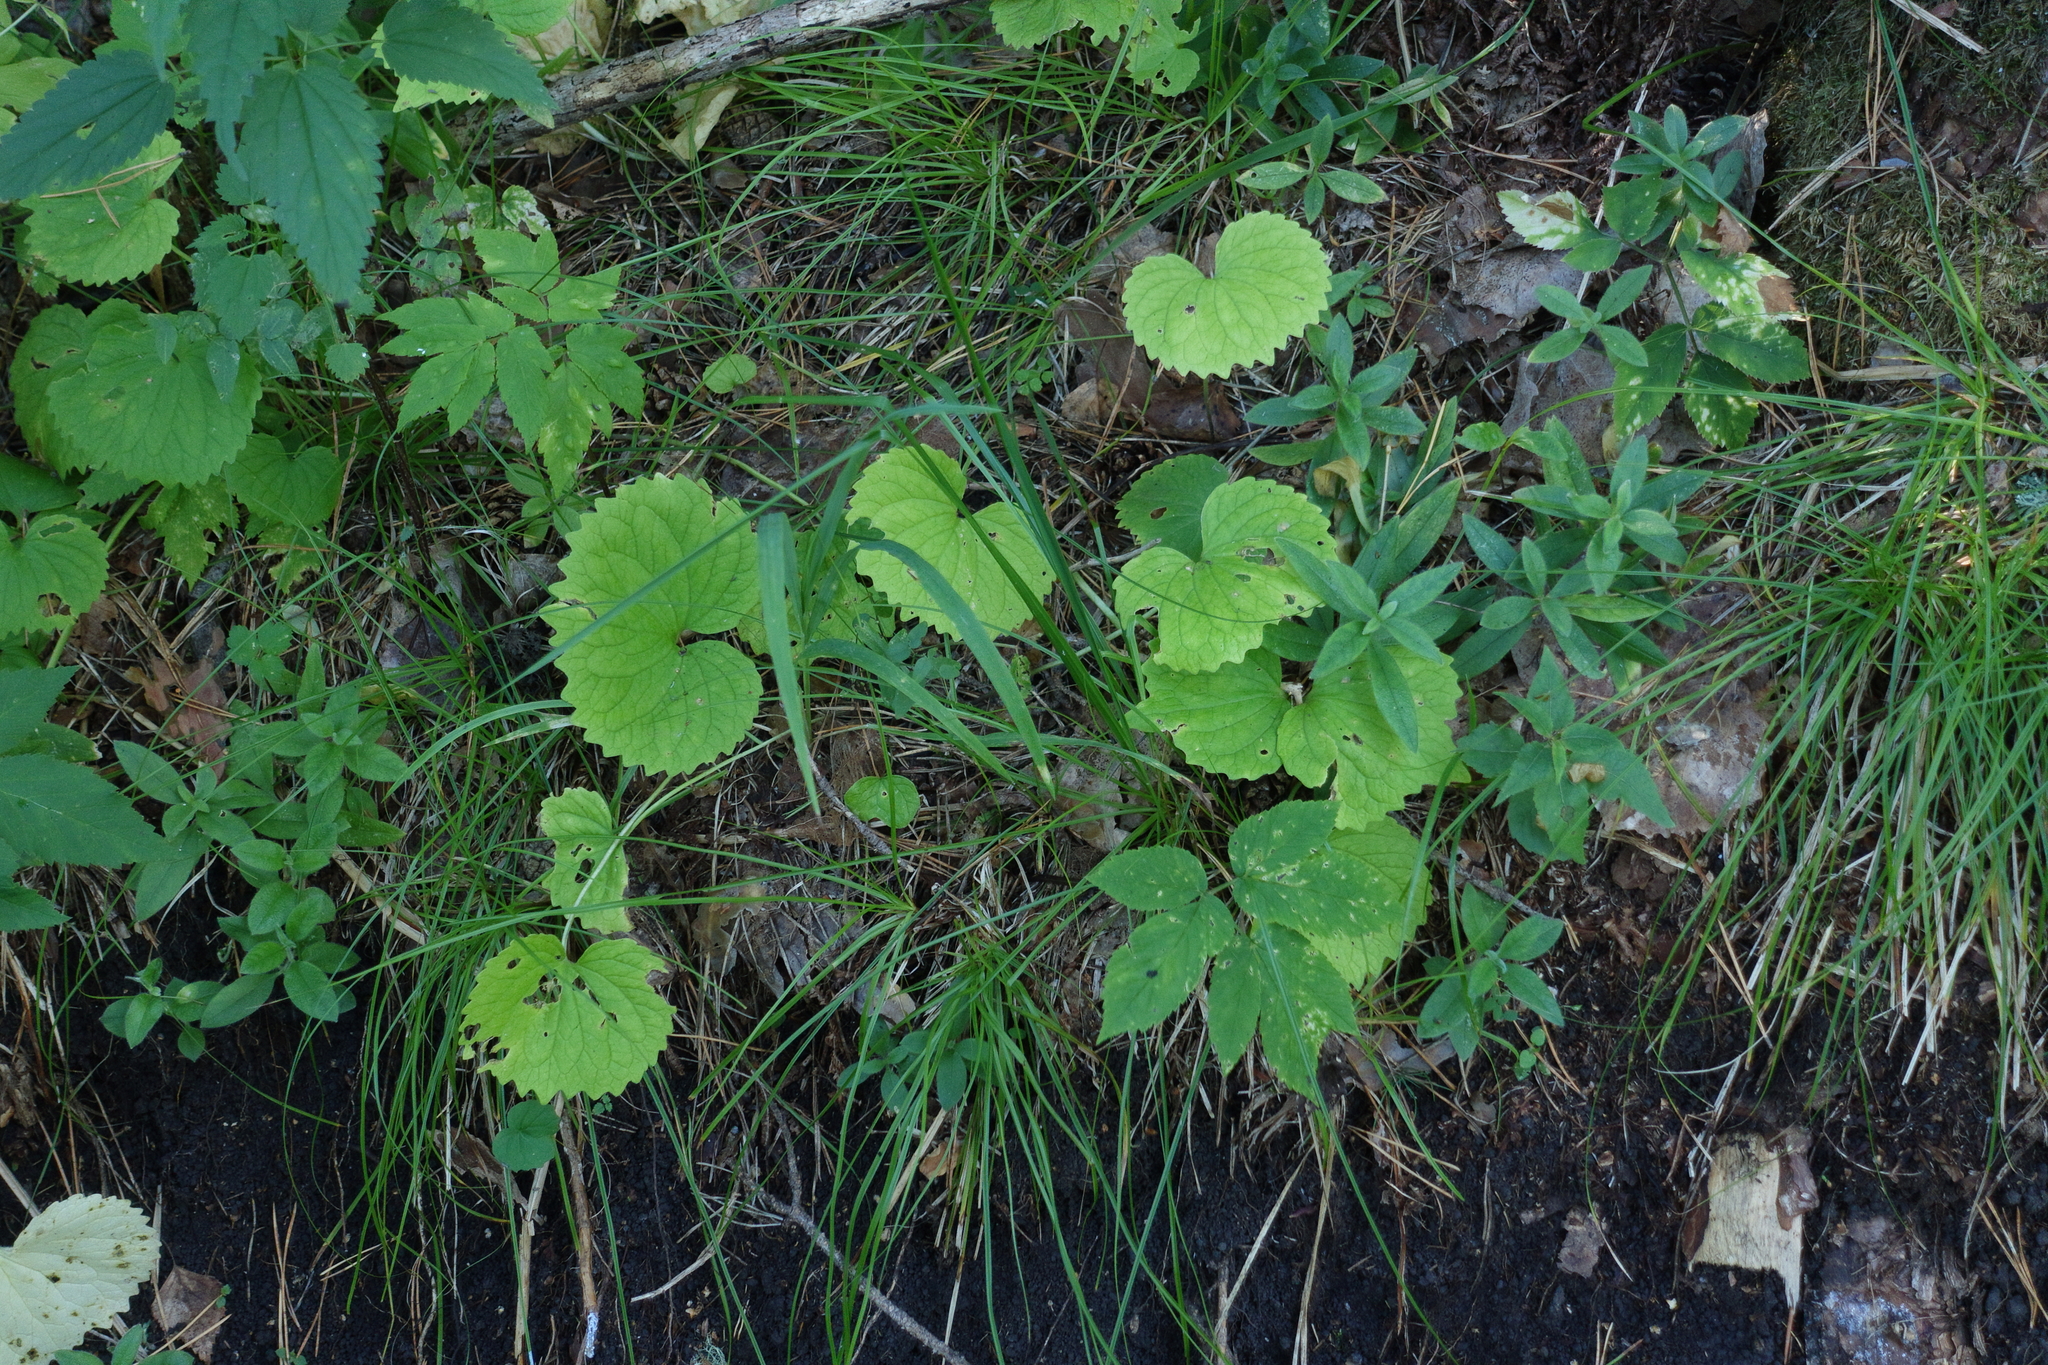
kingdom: Plantae
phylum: Tracheophyta
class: Magnoliopsida
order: Malpighiales
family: Violaceae
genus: Viola
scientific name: Viola uniflora
